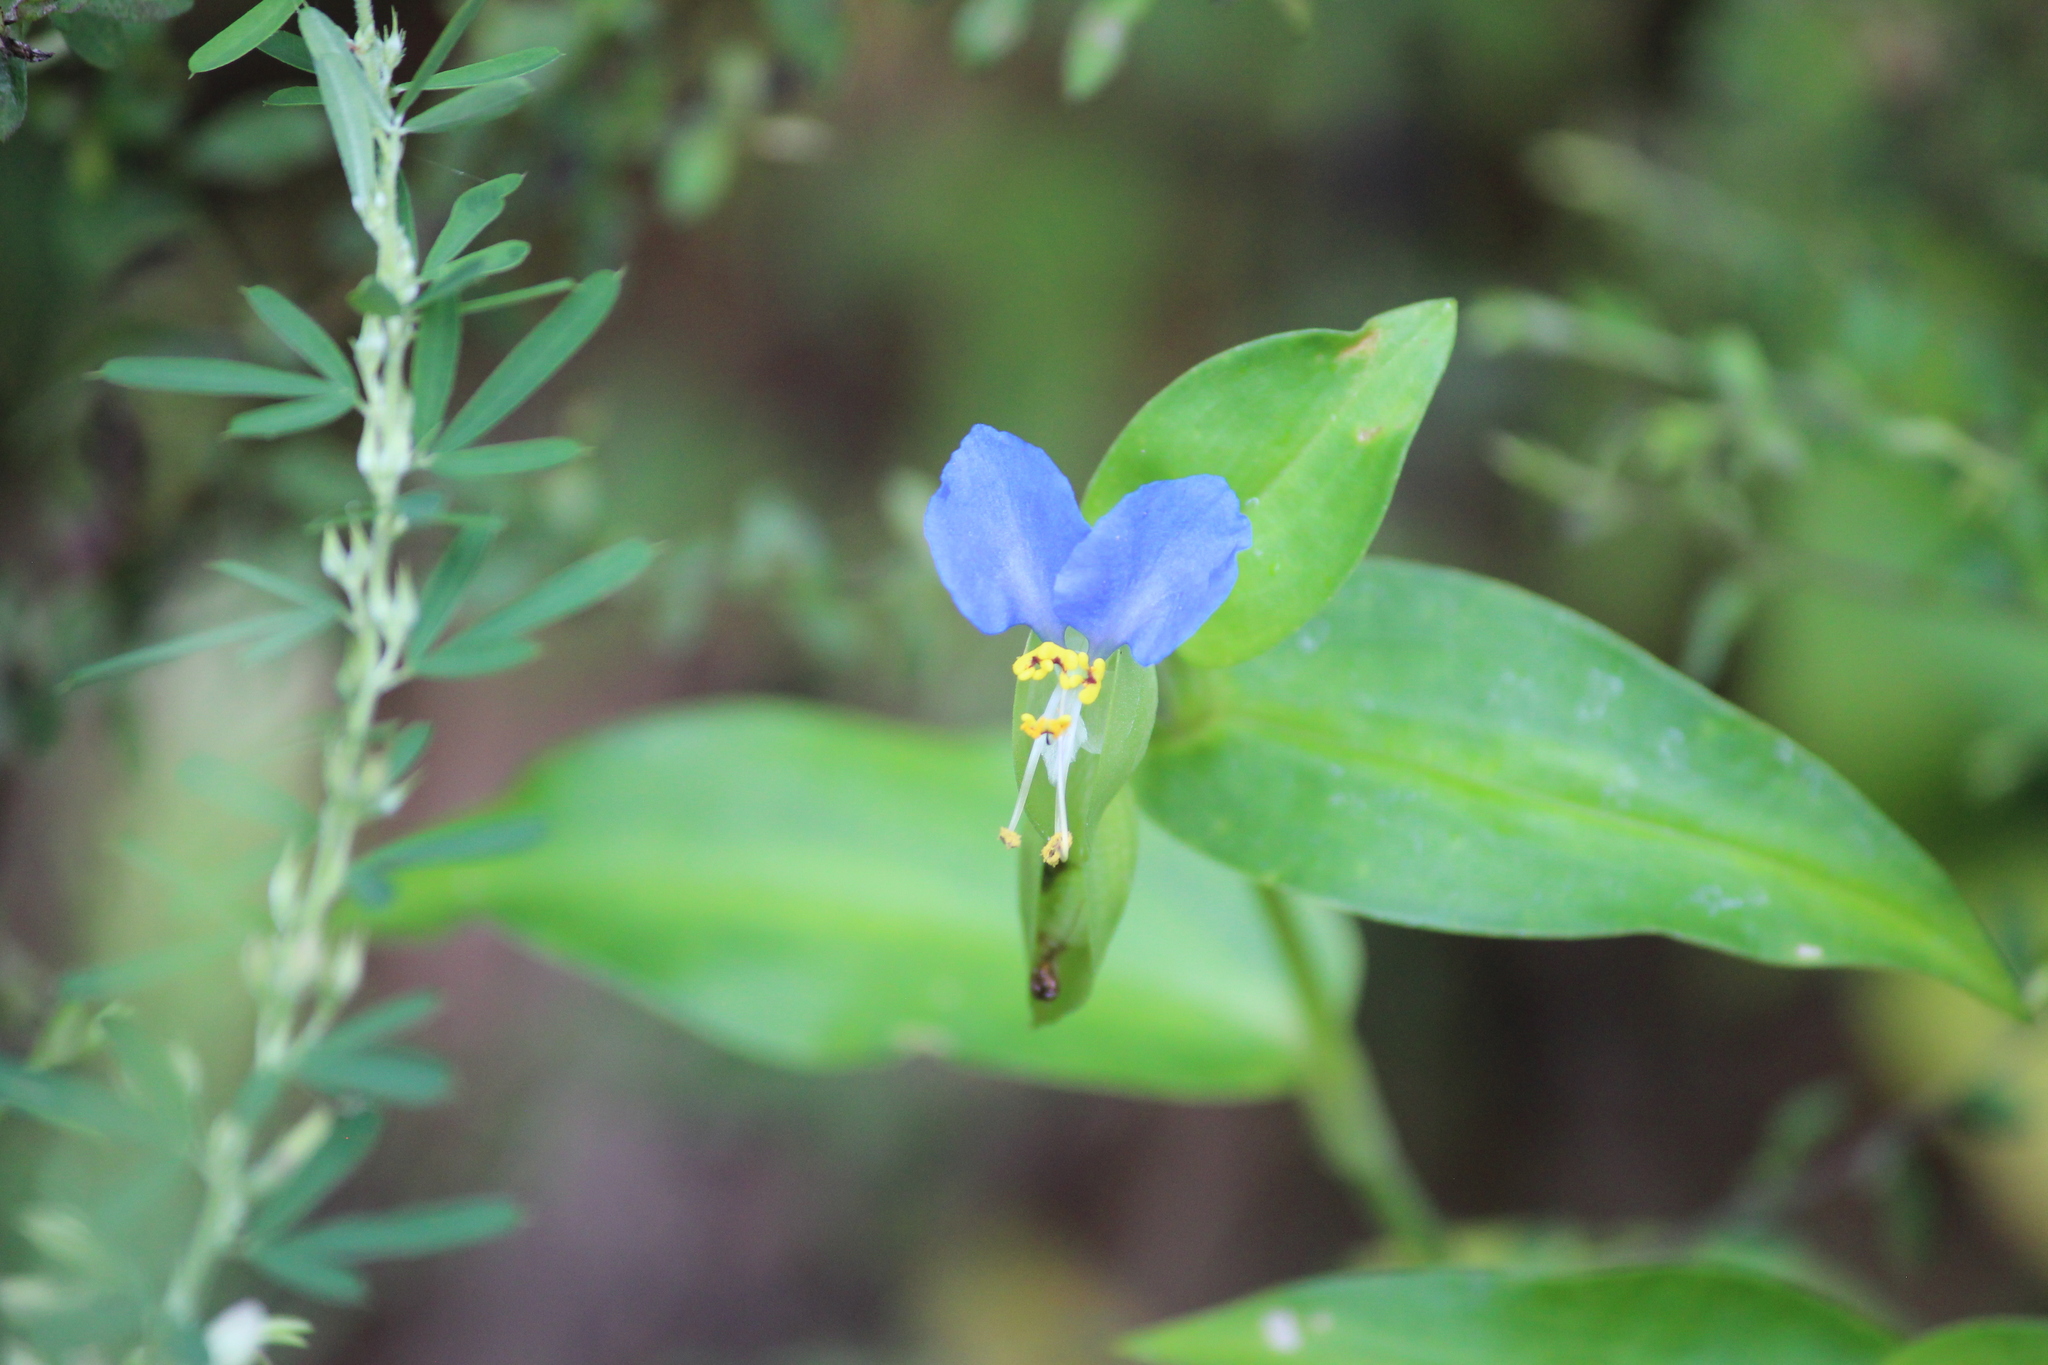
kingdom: Plantae
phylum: Tracheophyta
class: Liliopsida
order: Commelinales
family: Commelinaceae
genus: Commelina
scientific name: Commelina communis
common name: Asiatic dayflower
